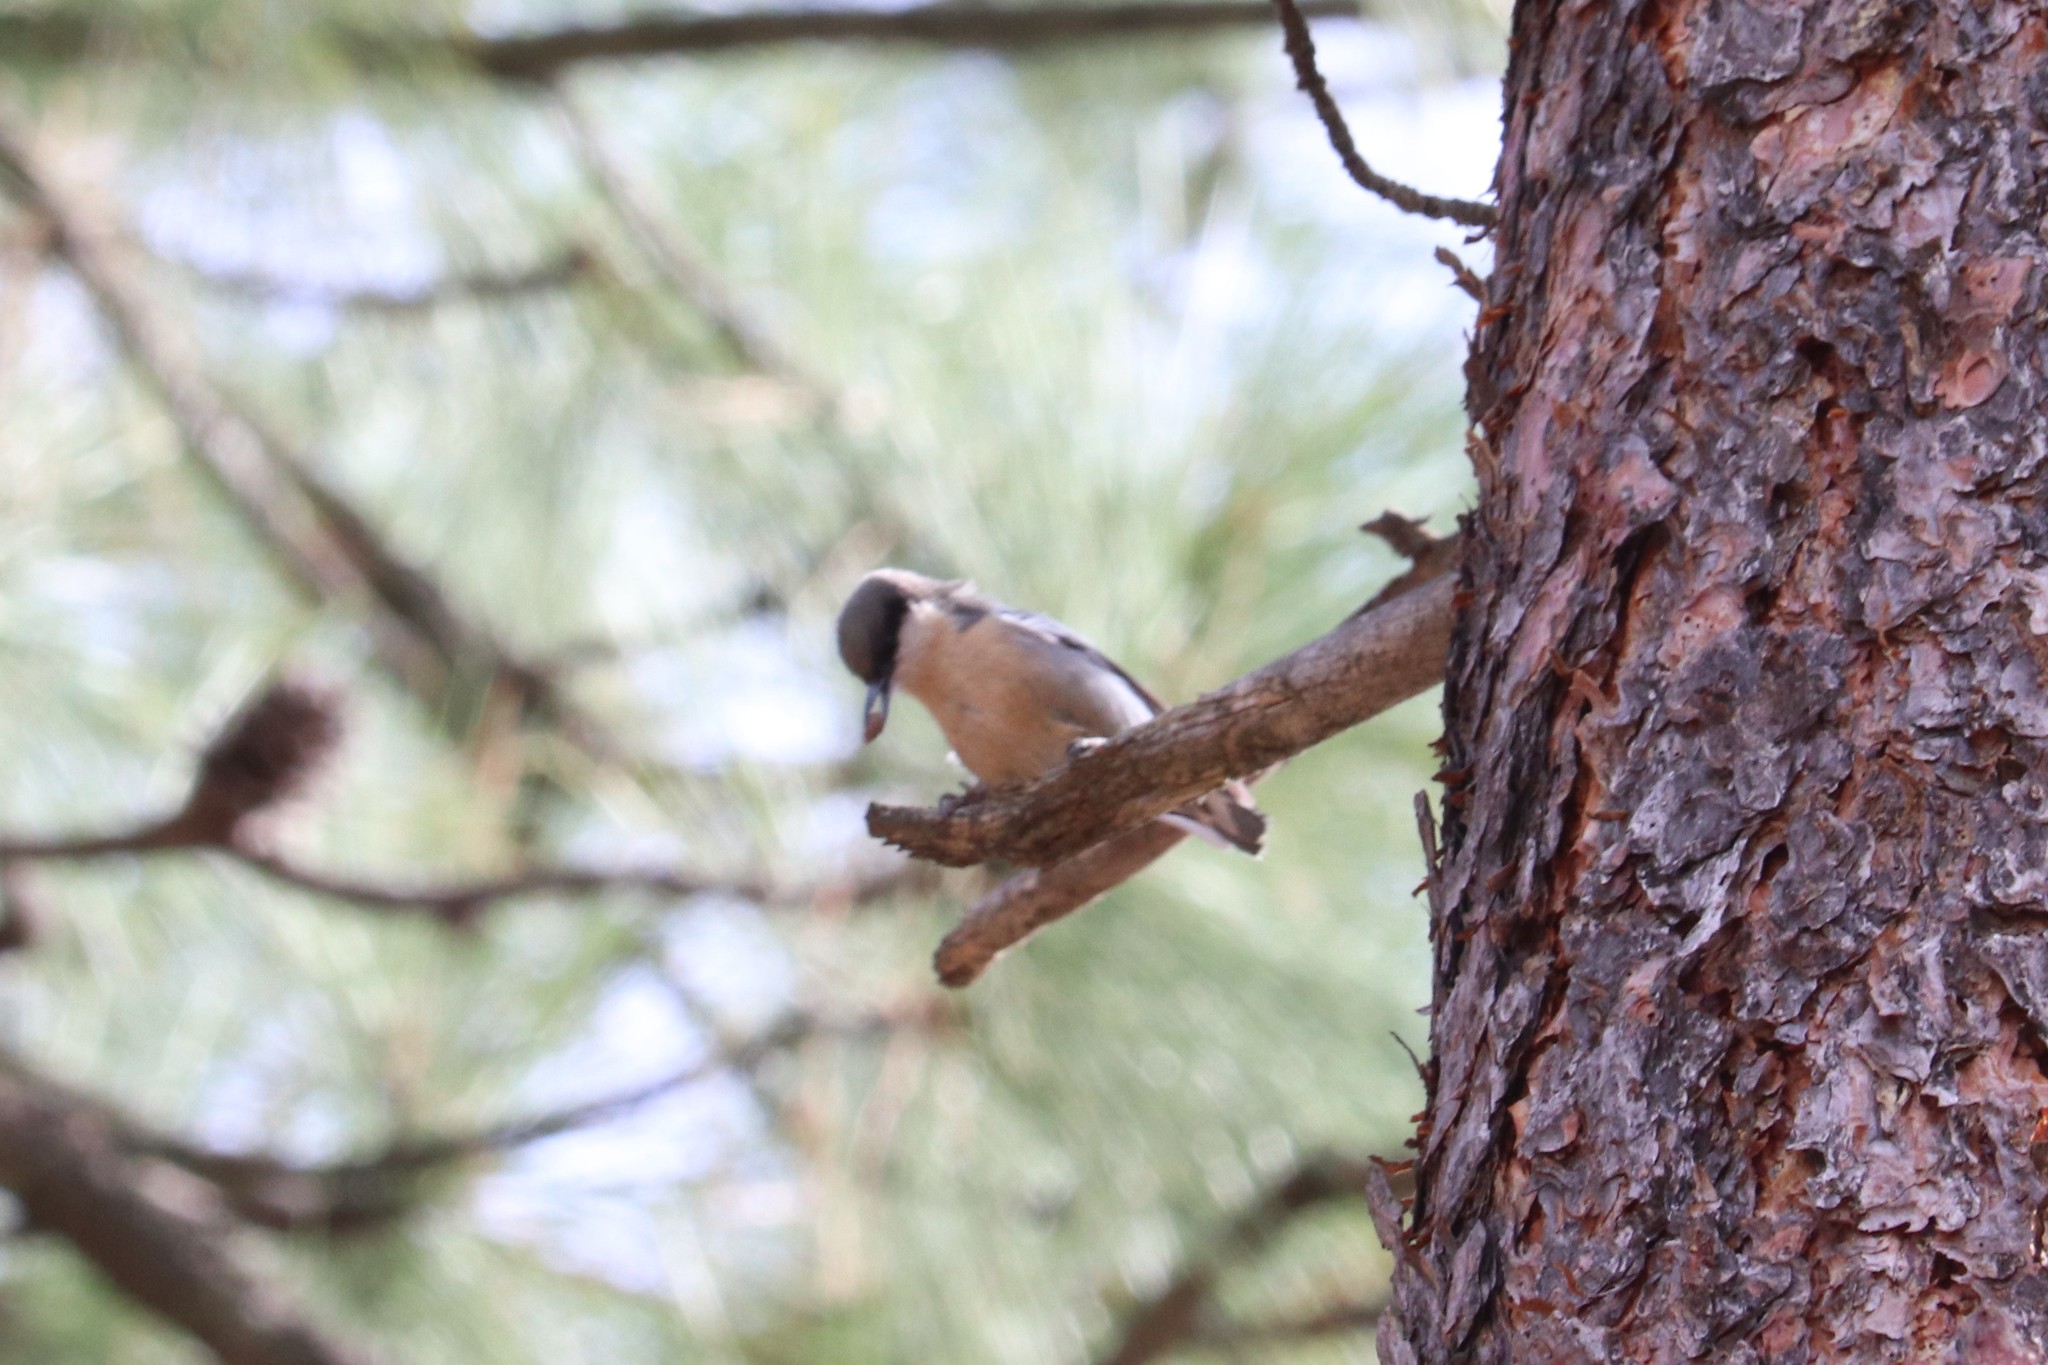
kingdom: Animalia
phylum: Chordata
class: Aves
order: Passeriformes
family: Sittidae
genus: Sitta
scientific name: Sitta pygmaea
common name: Pygmy nuthatch
